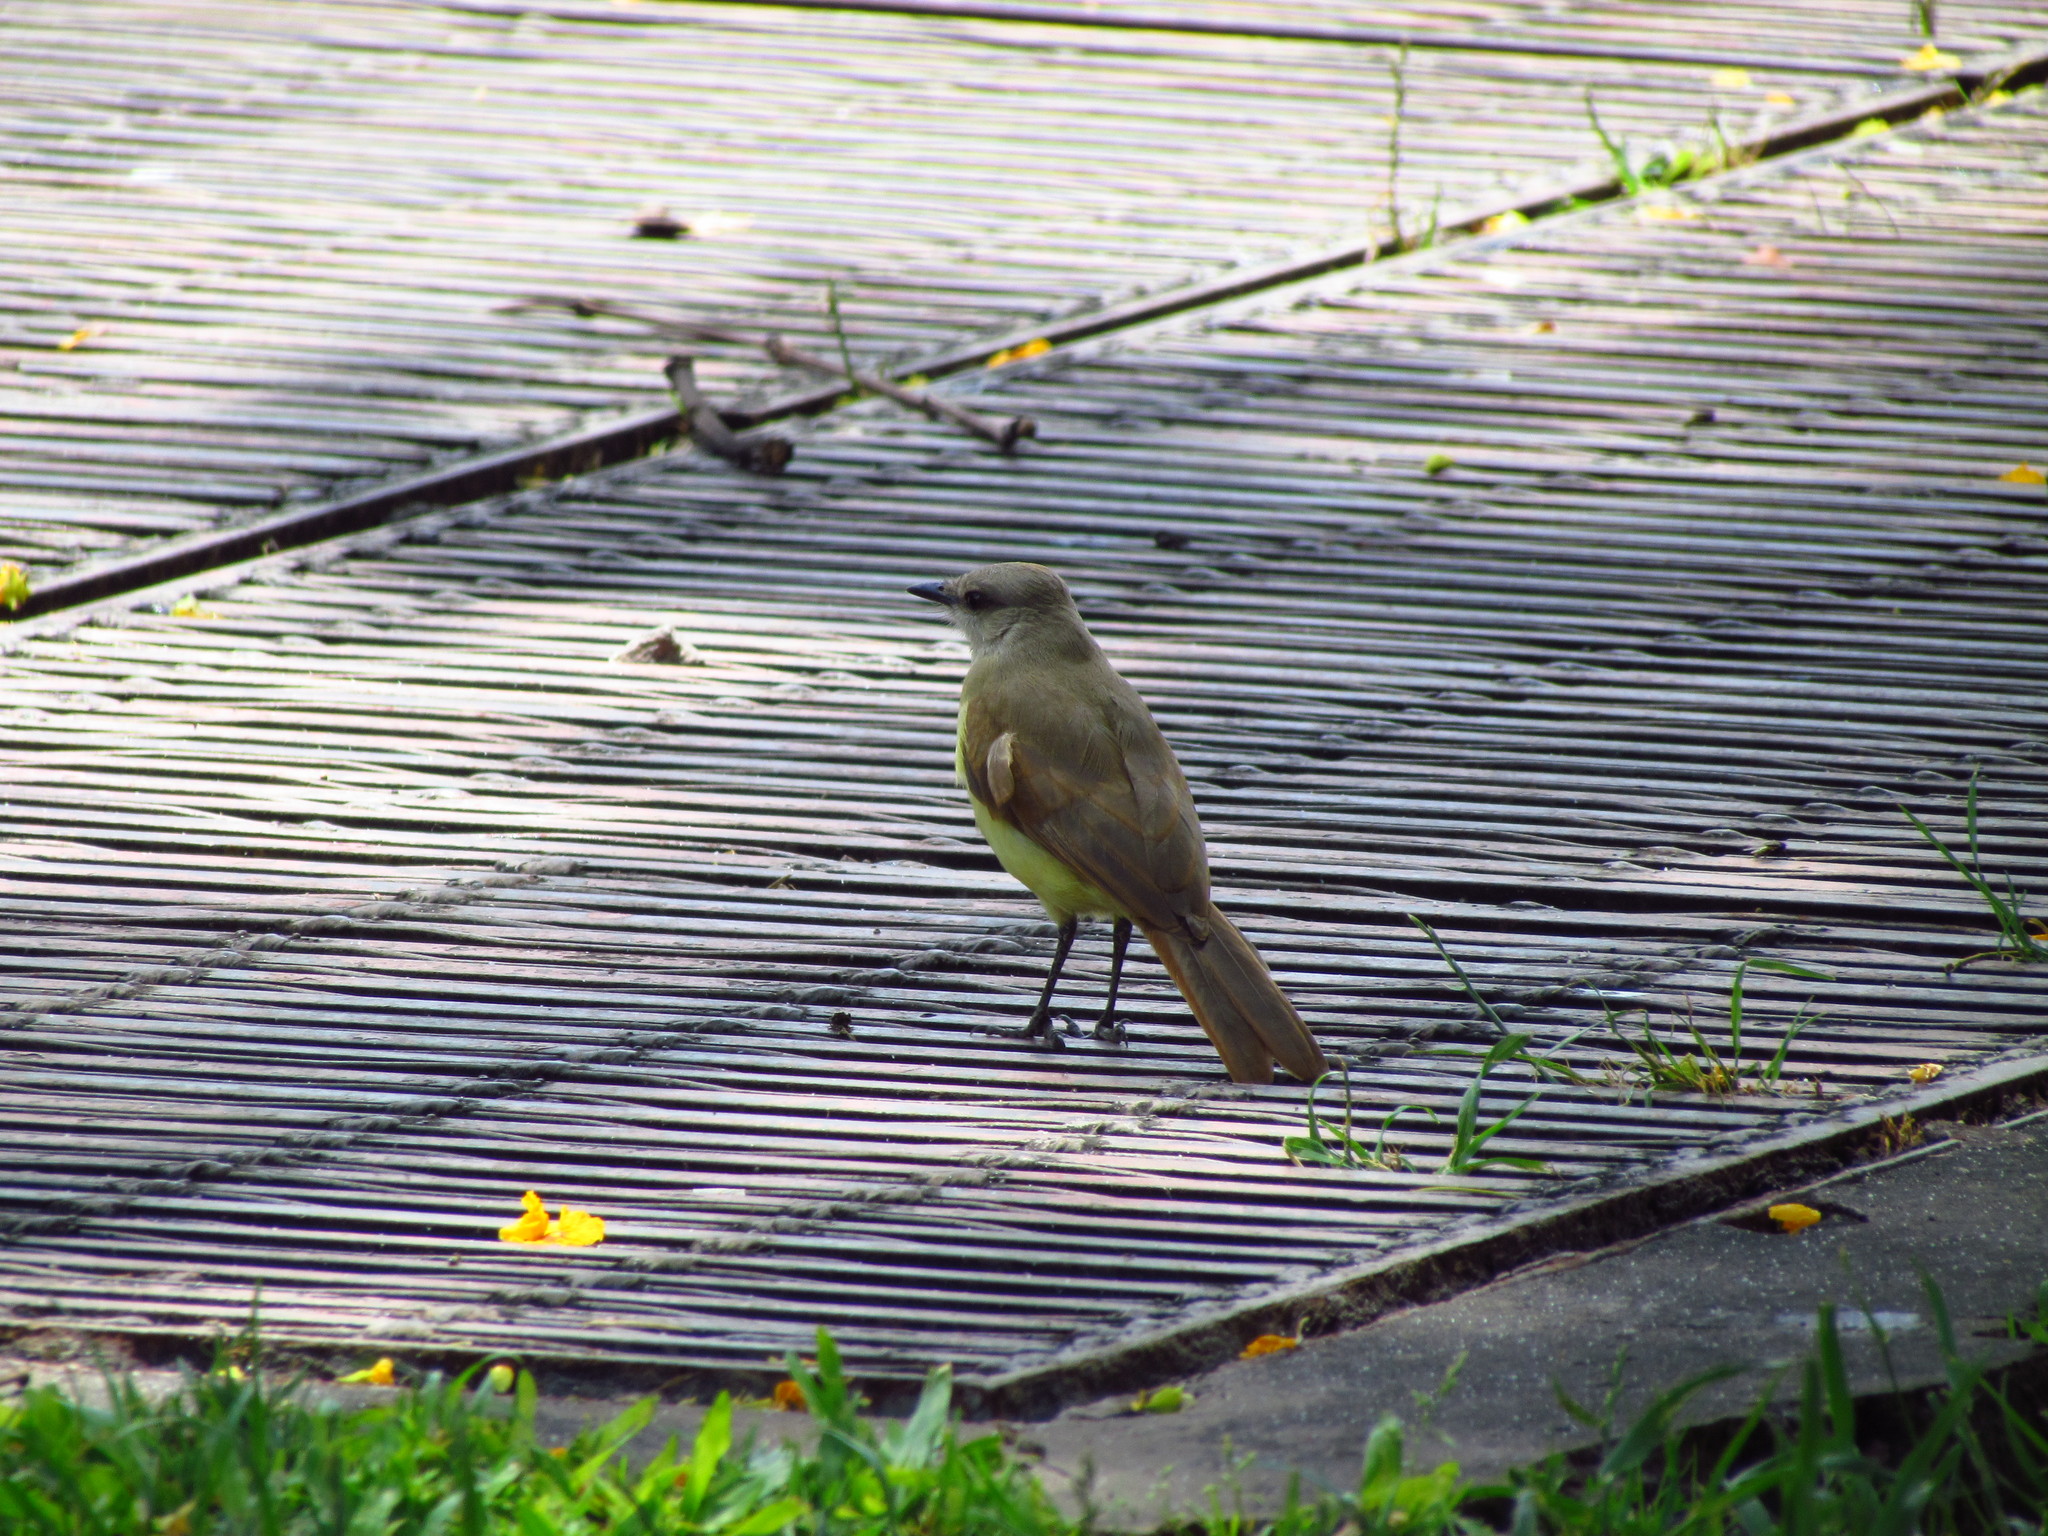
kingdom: Animalia
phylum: Chordata
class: Aves
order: Passeriformes
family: Tyrannidae
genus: Machetornis
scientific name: Machetornis rixosa
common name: Cattle tyrant
